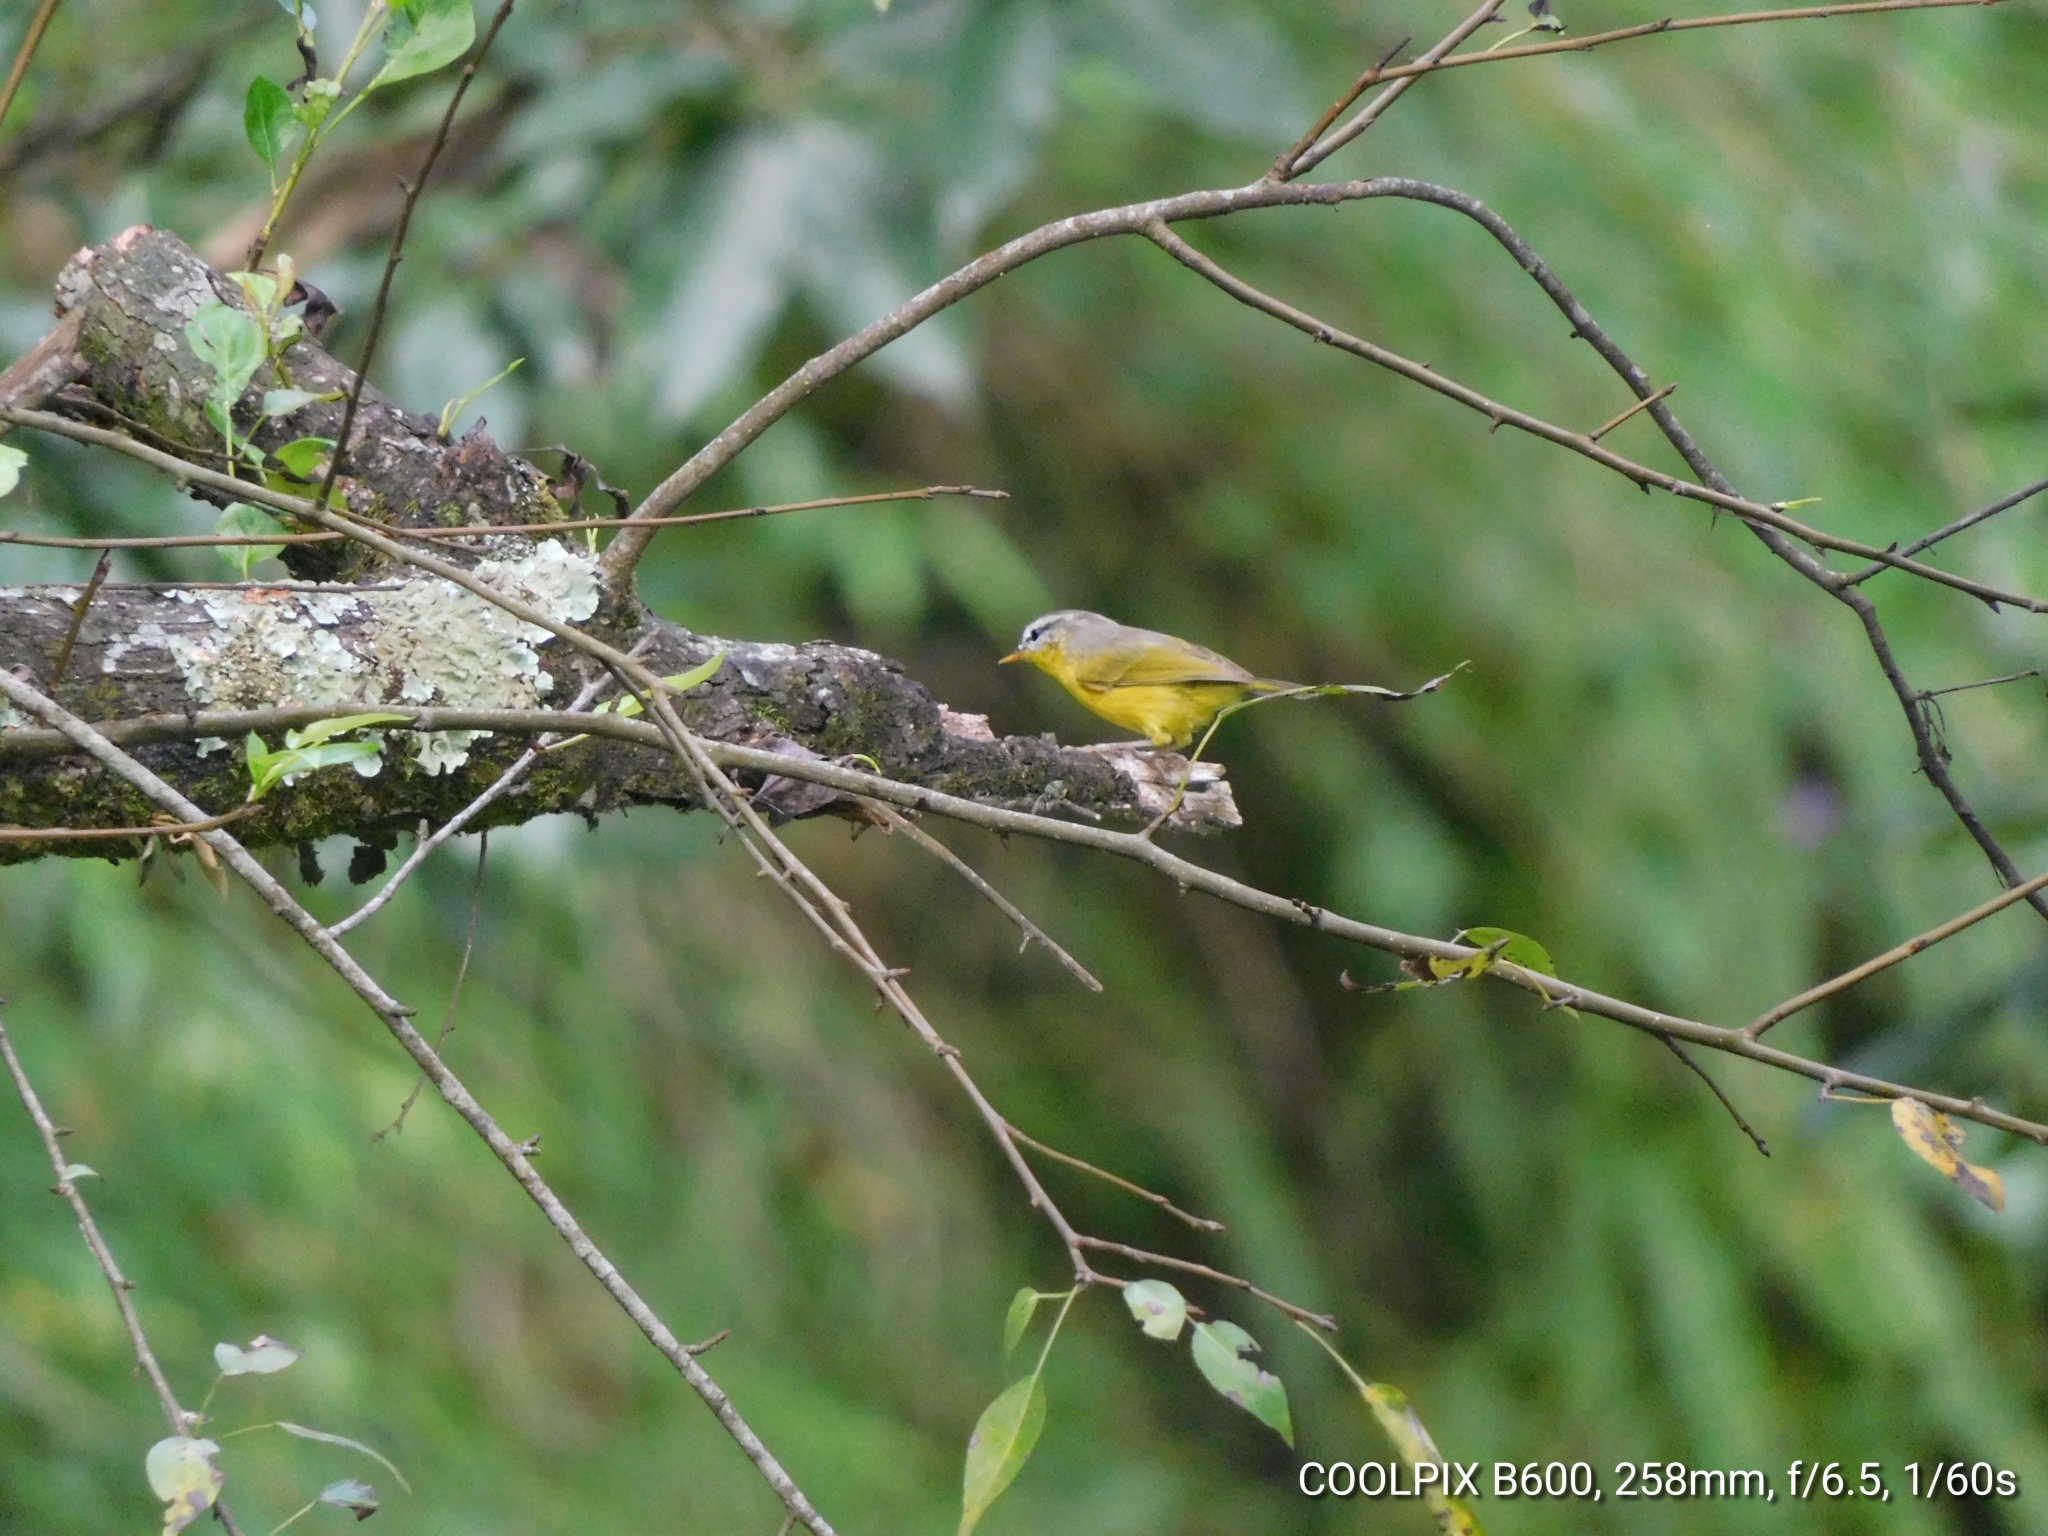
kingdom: Animalia
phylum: Chordata
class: Aves
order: Passeriformes
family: Phylloscopidae
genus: Phylloscopus
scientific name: Phylloscopus xanthoschistos
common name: Grey-hooded warbler
